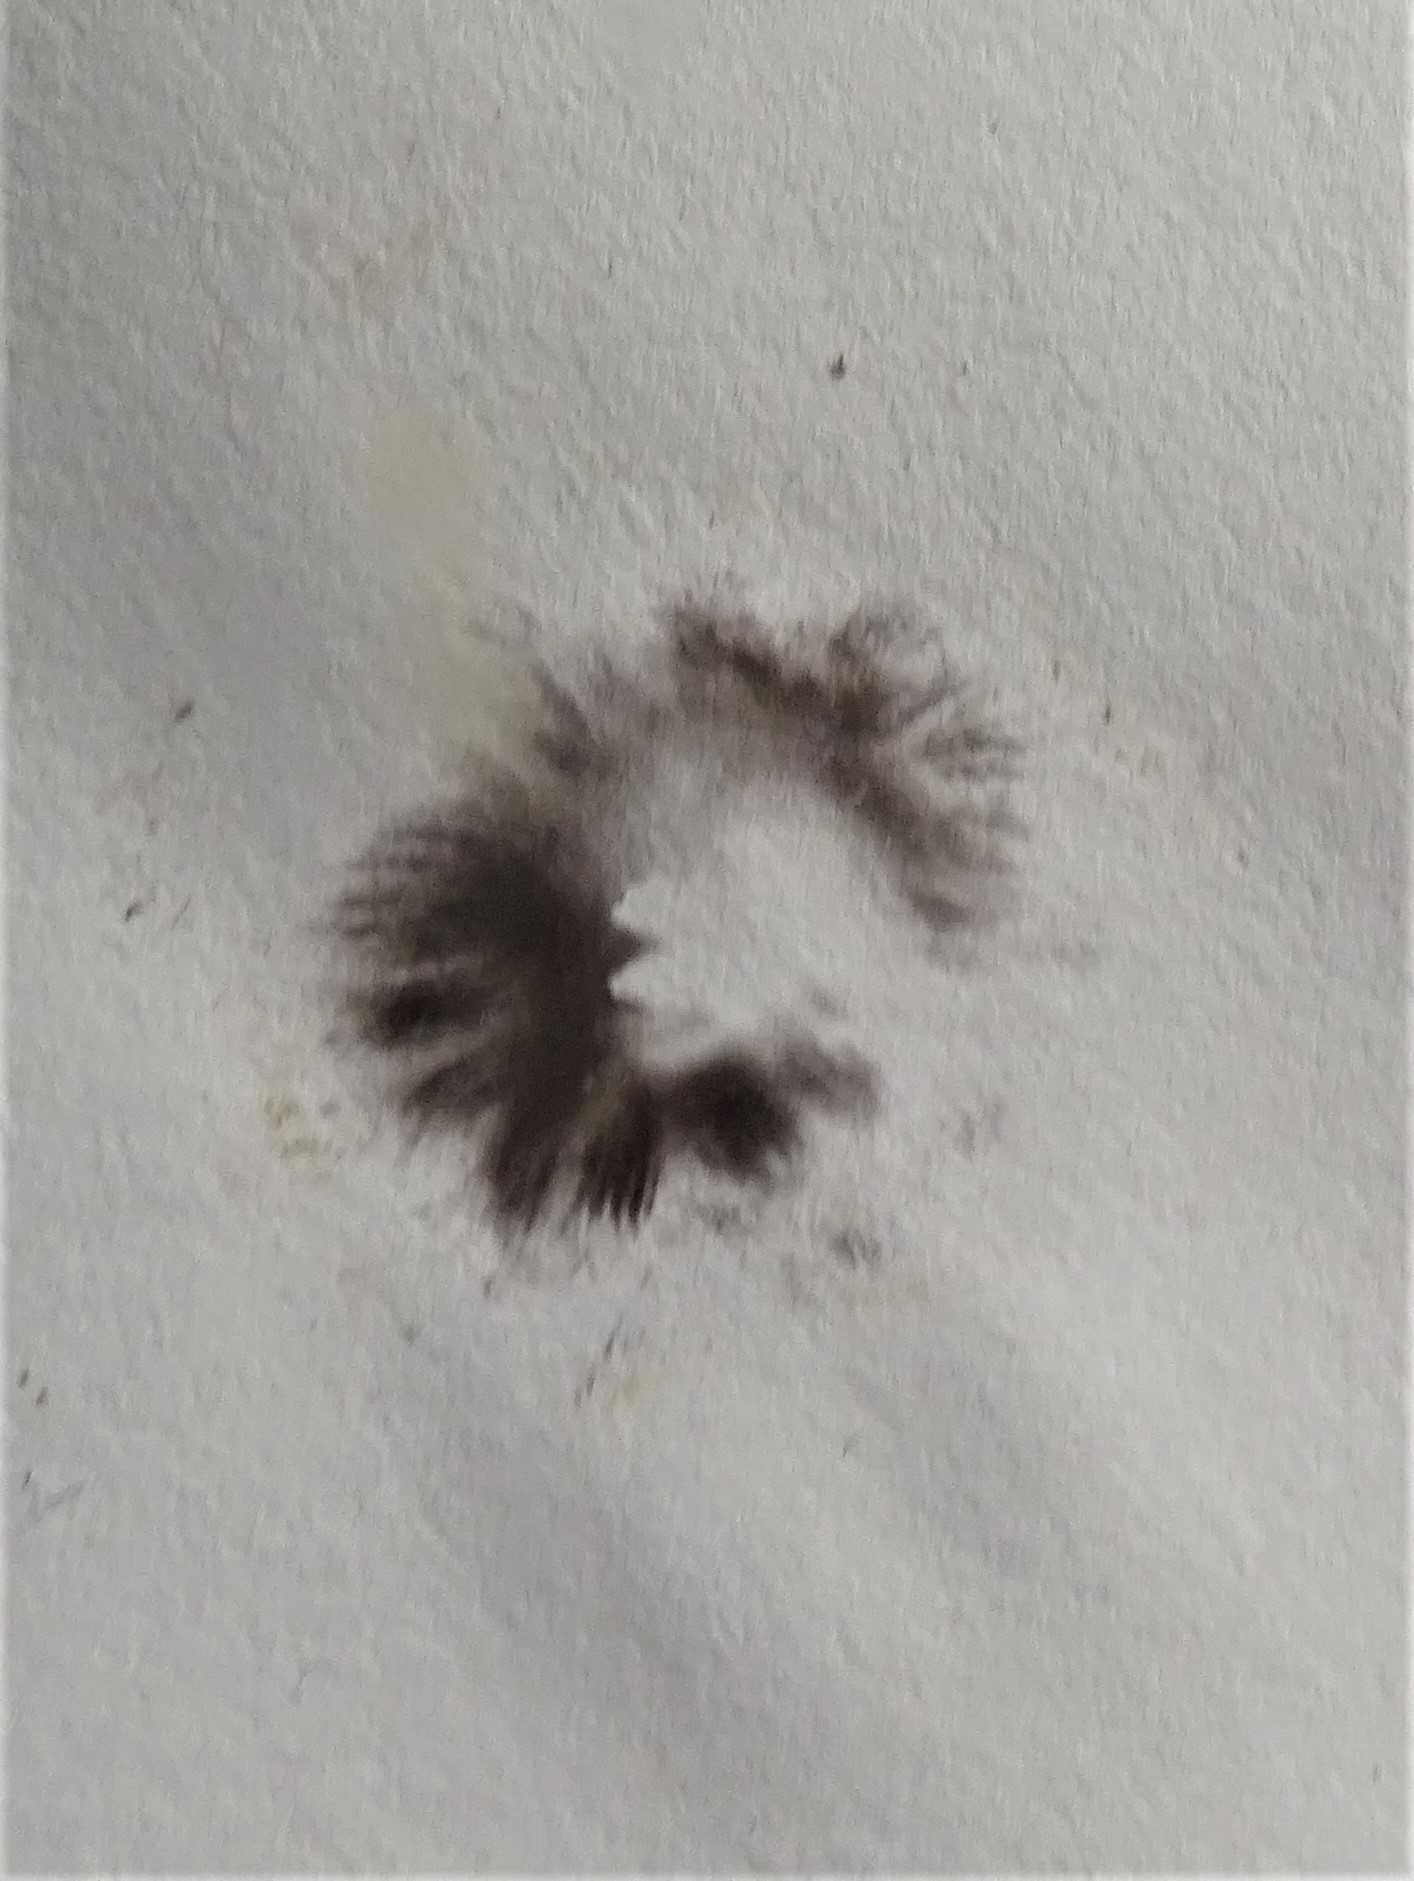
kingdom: Fungi
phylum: Basidiomycota
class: Agaricomycetes
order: Agaricales
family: Psathyrellaceae
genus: Coprinellus
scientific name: Coprinellus micaceus
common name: Glistening ink-cap
